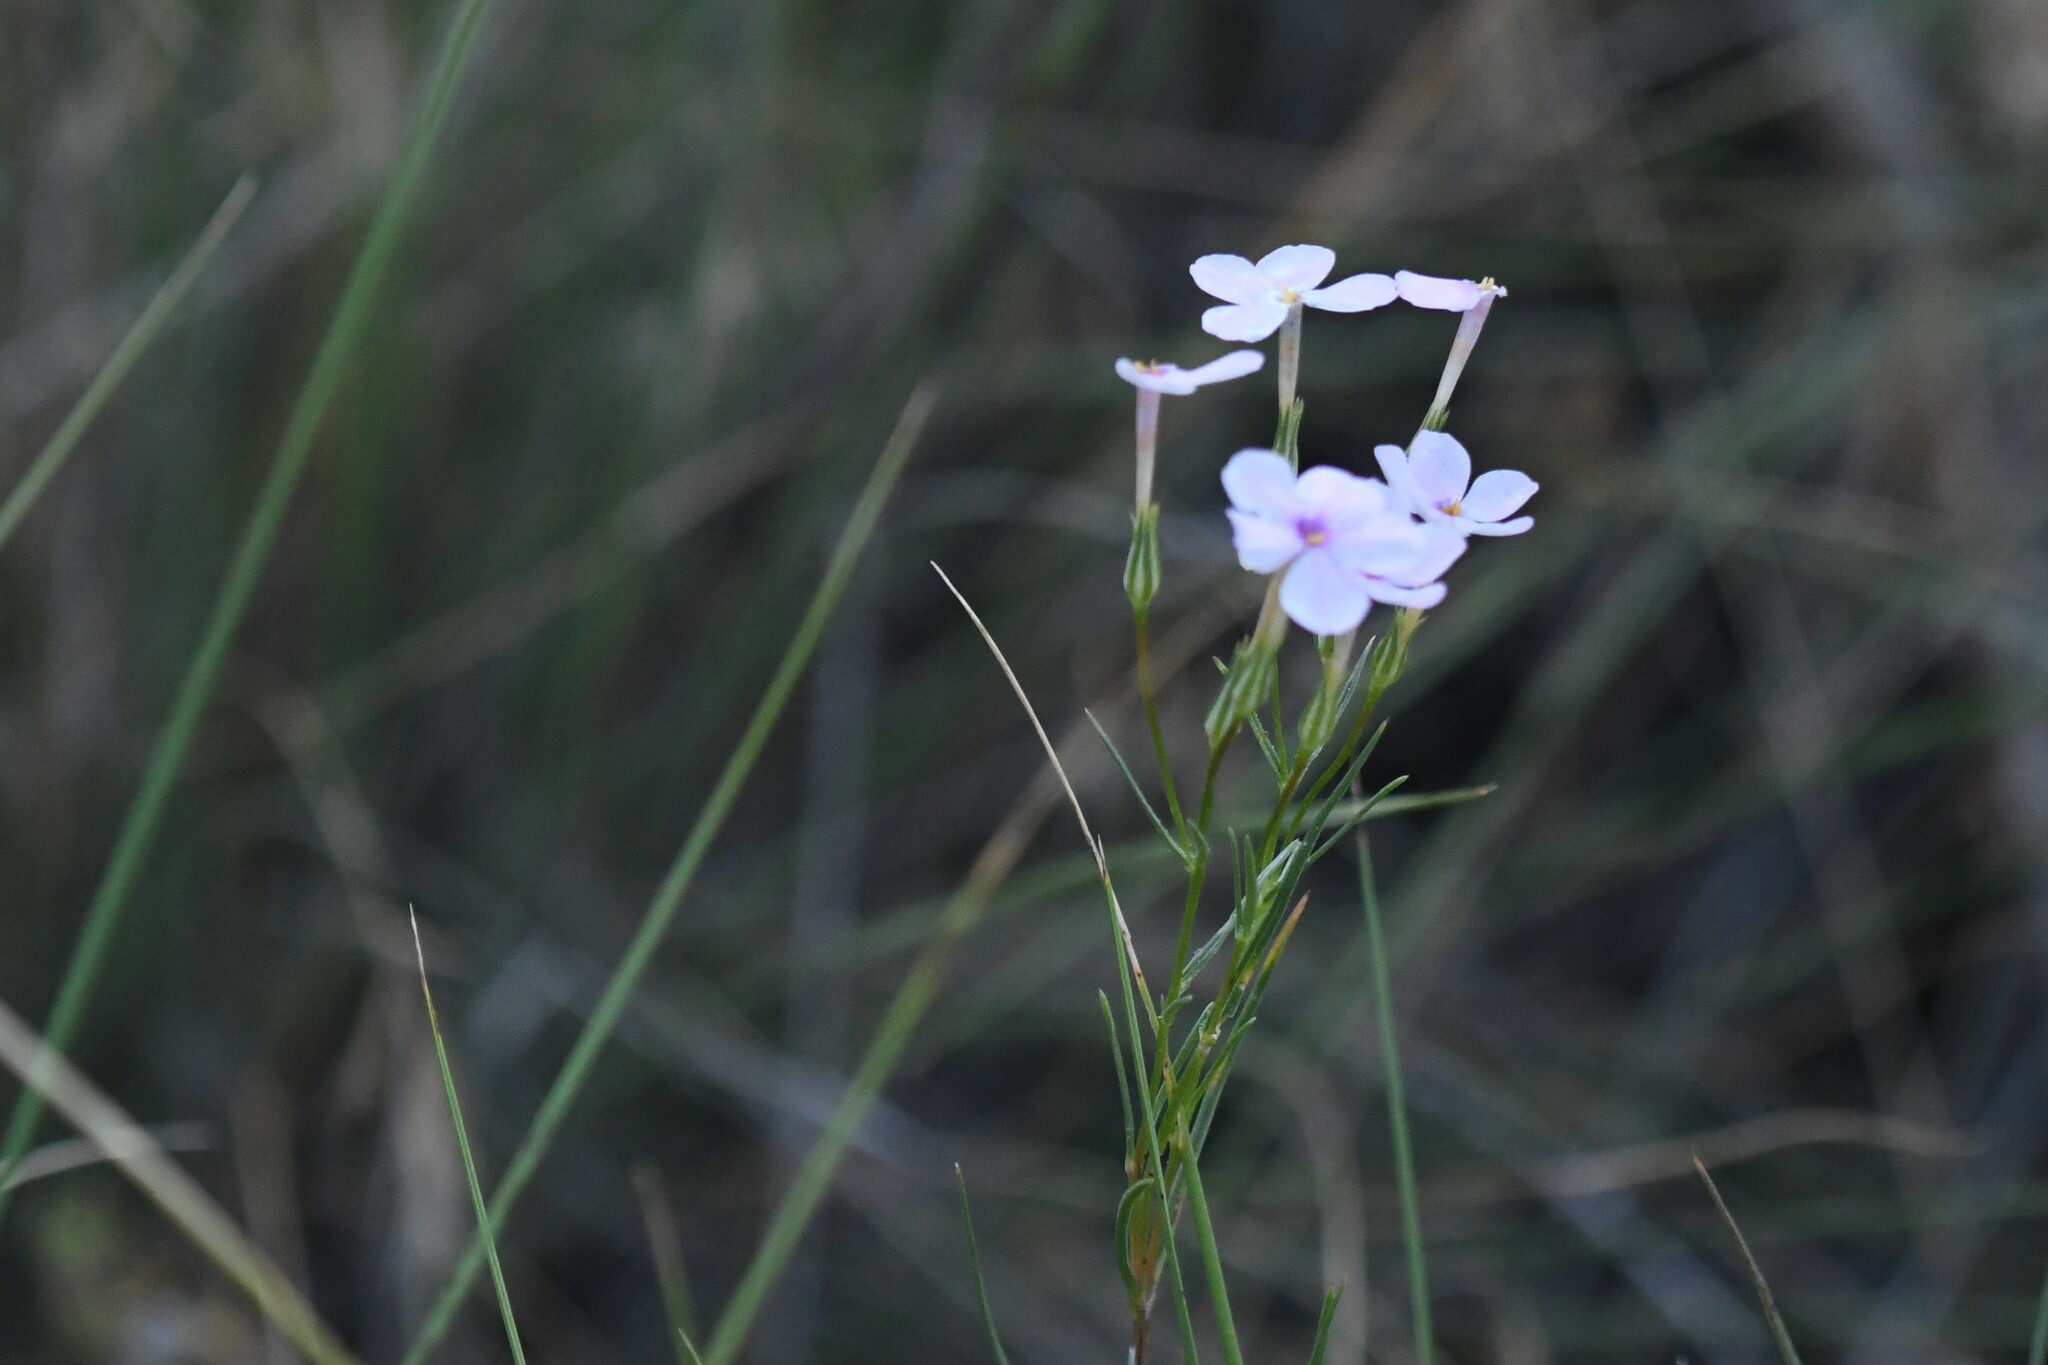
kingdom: Plantae
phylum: Tracheophyta
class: Magnoliopsida
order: Ericales
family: Polemoniaceae
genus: Phlox
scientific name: Phlox longifolia
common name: Longleaf phlox
